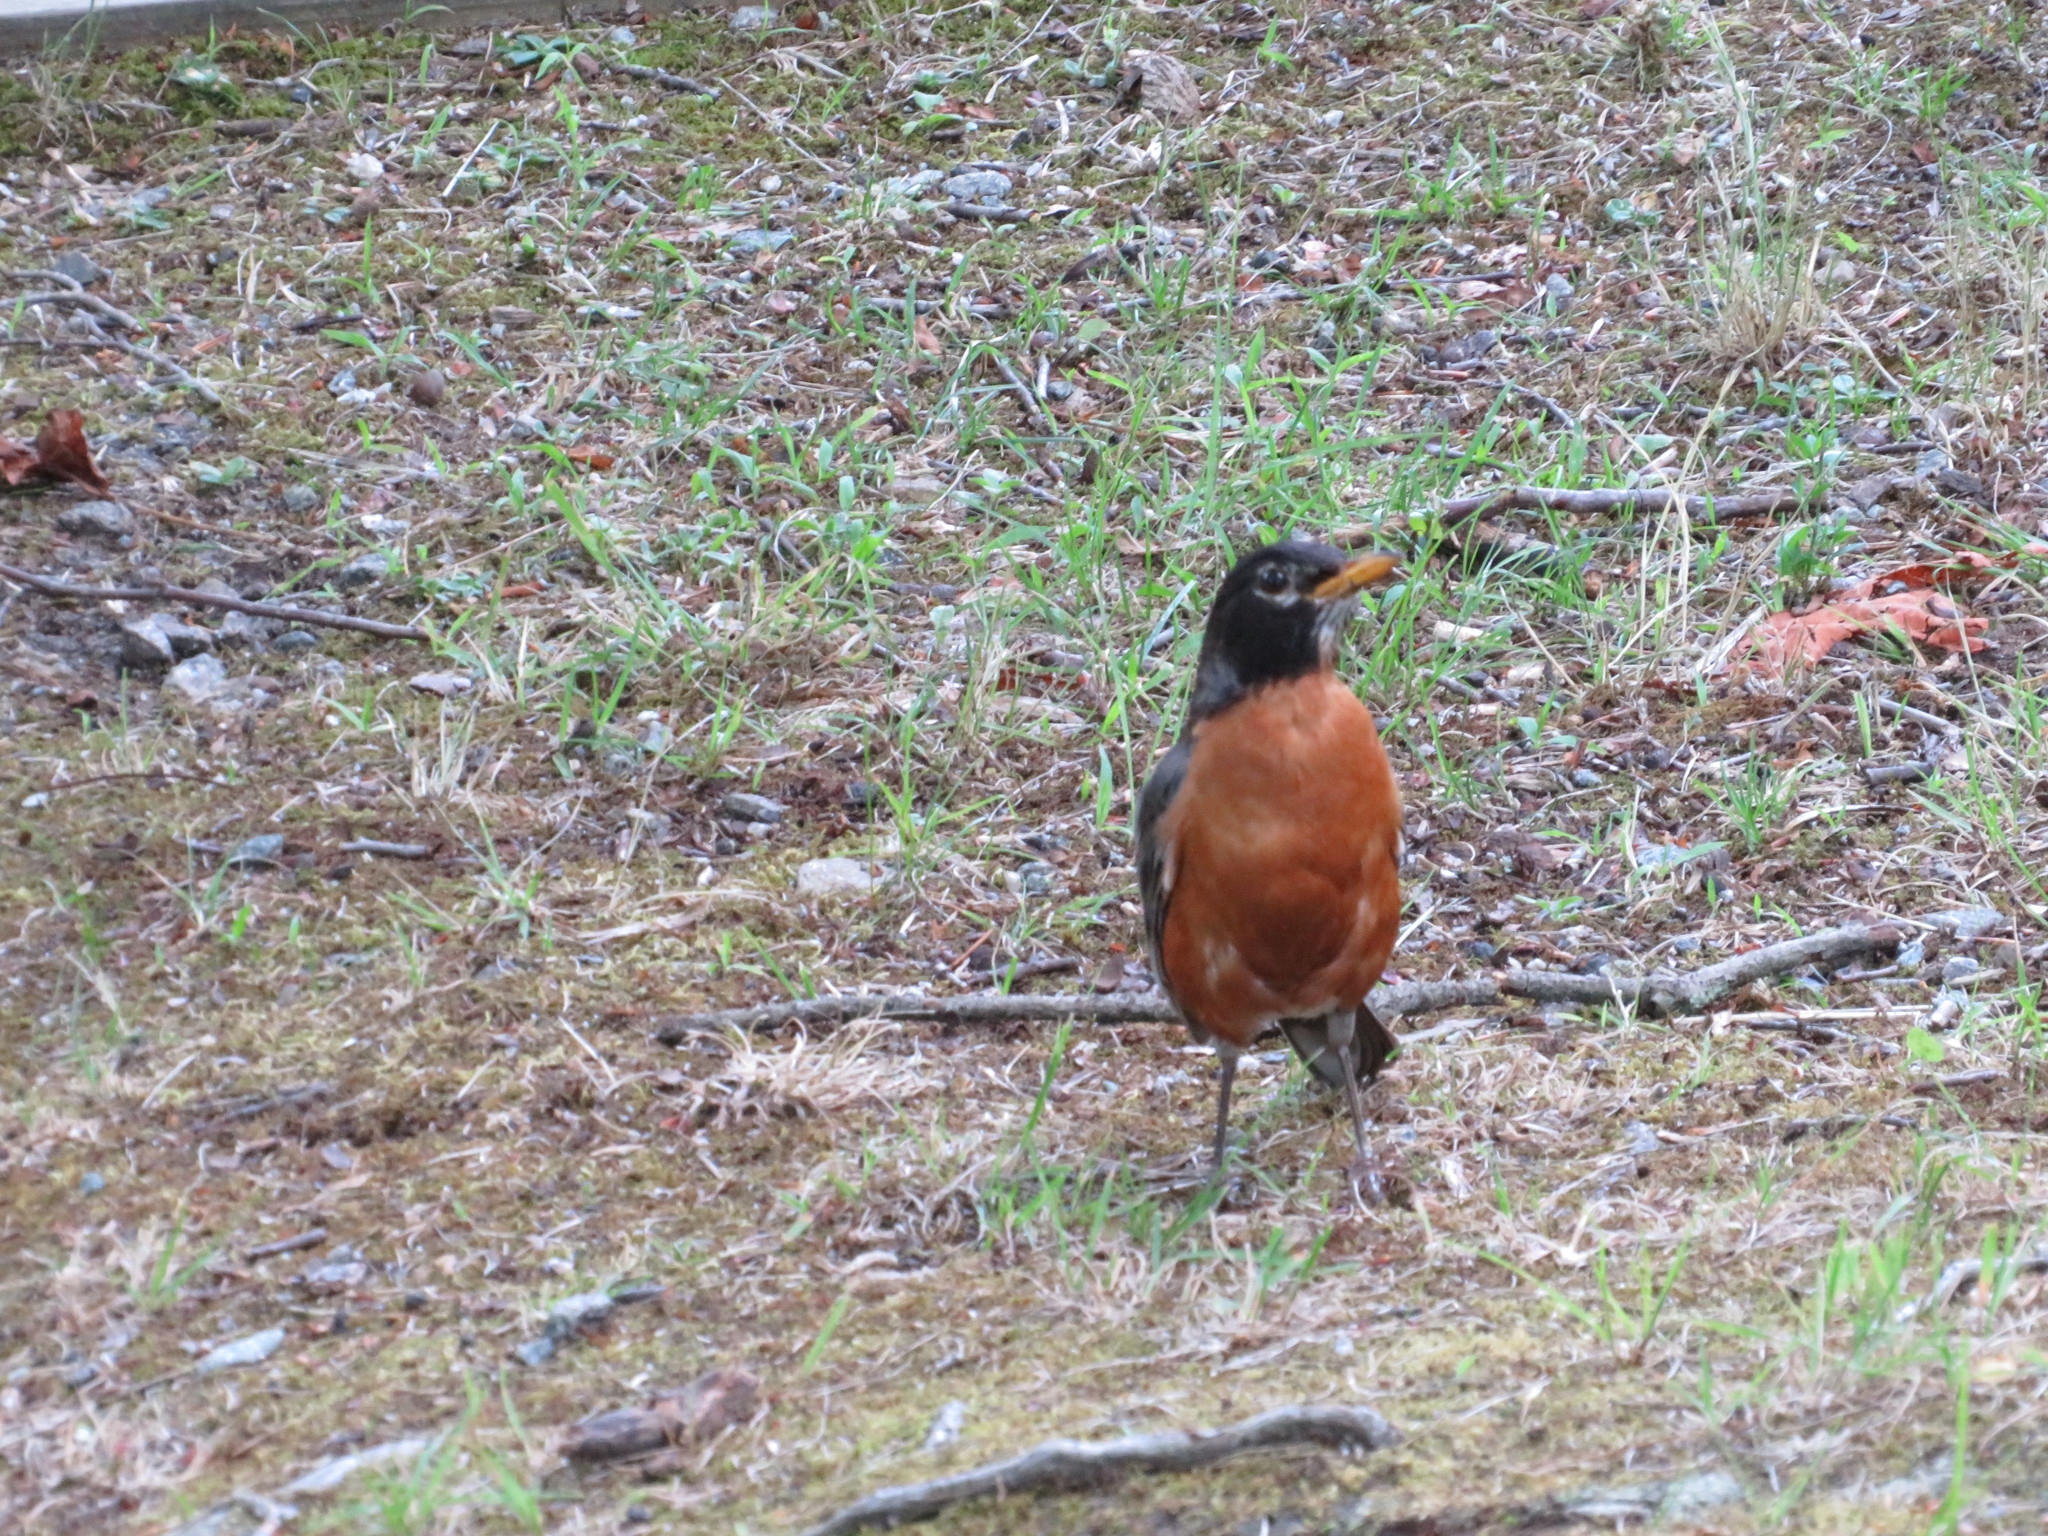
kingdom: Animalia
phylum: Chordata
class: Aves
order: Passeriformes
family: Turdidae
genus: Turdus
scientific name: Turdus migratorius
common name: American robin
